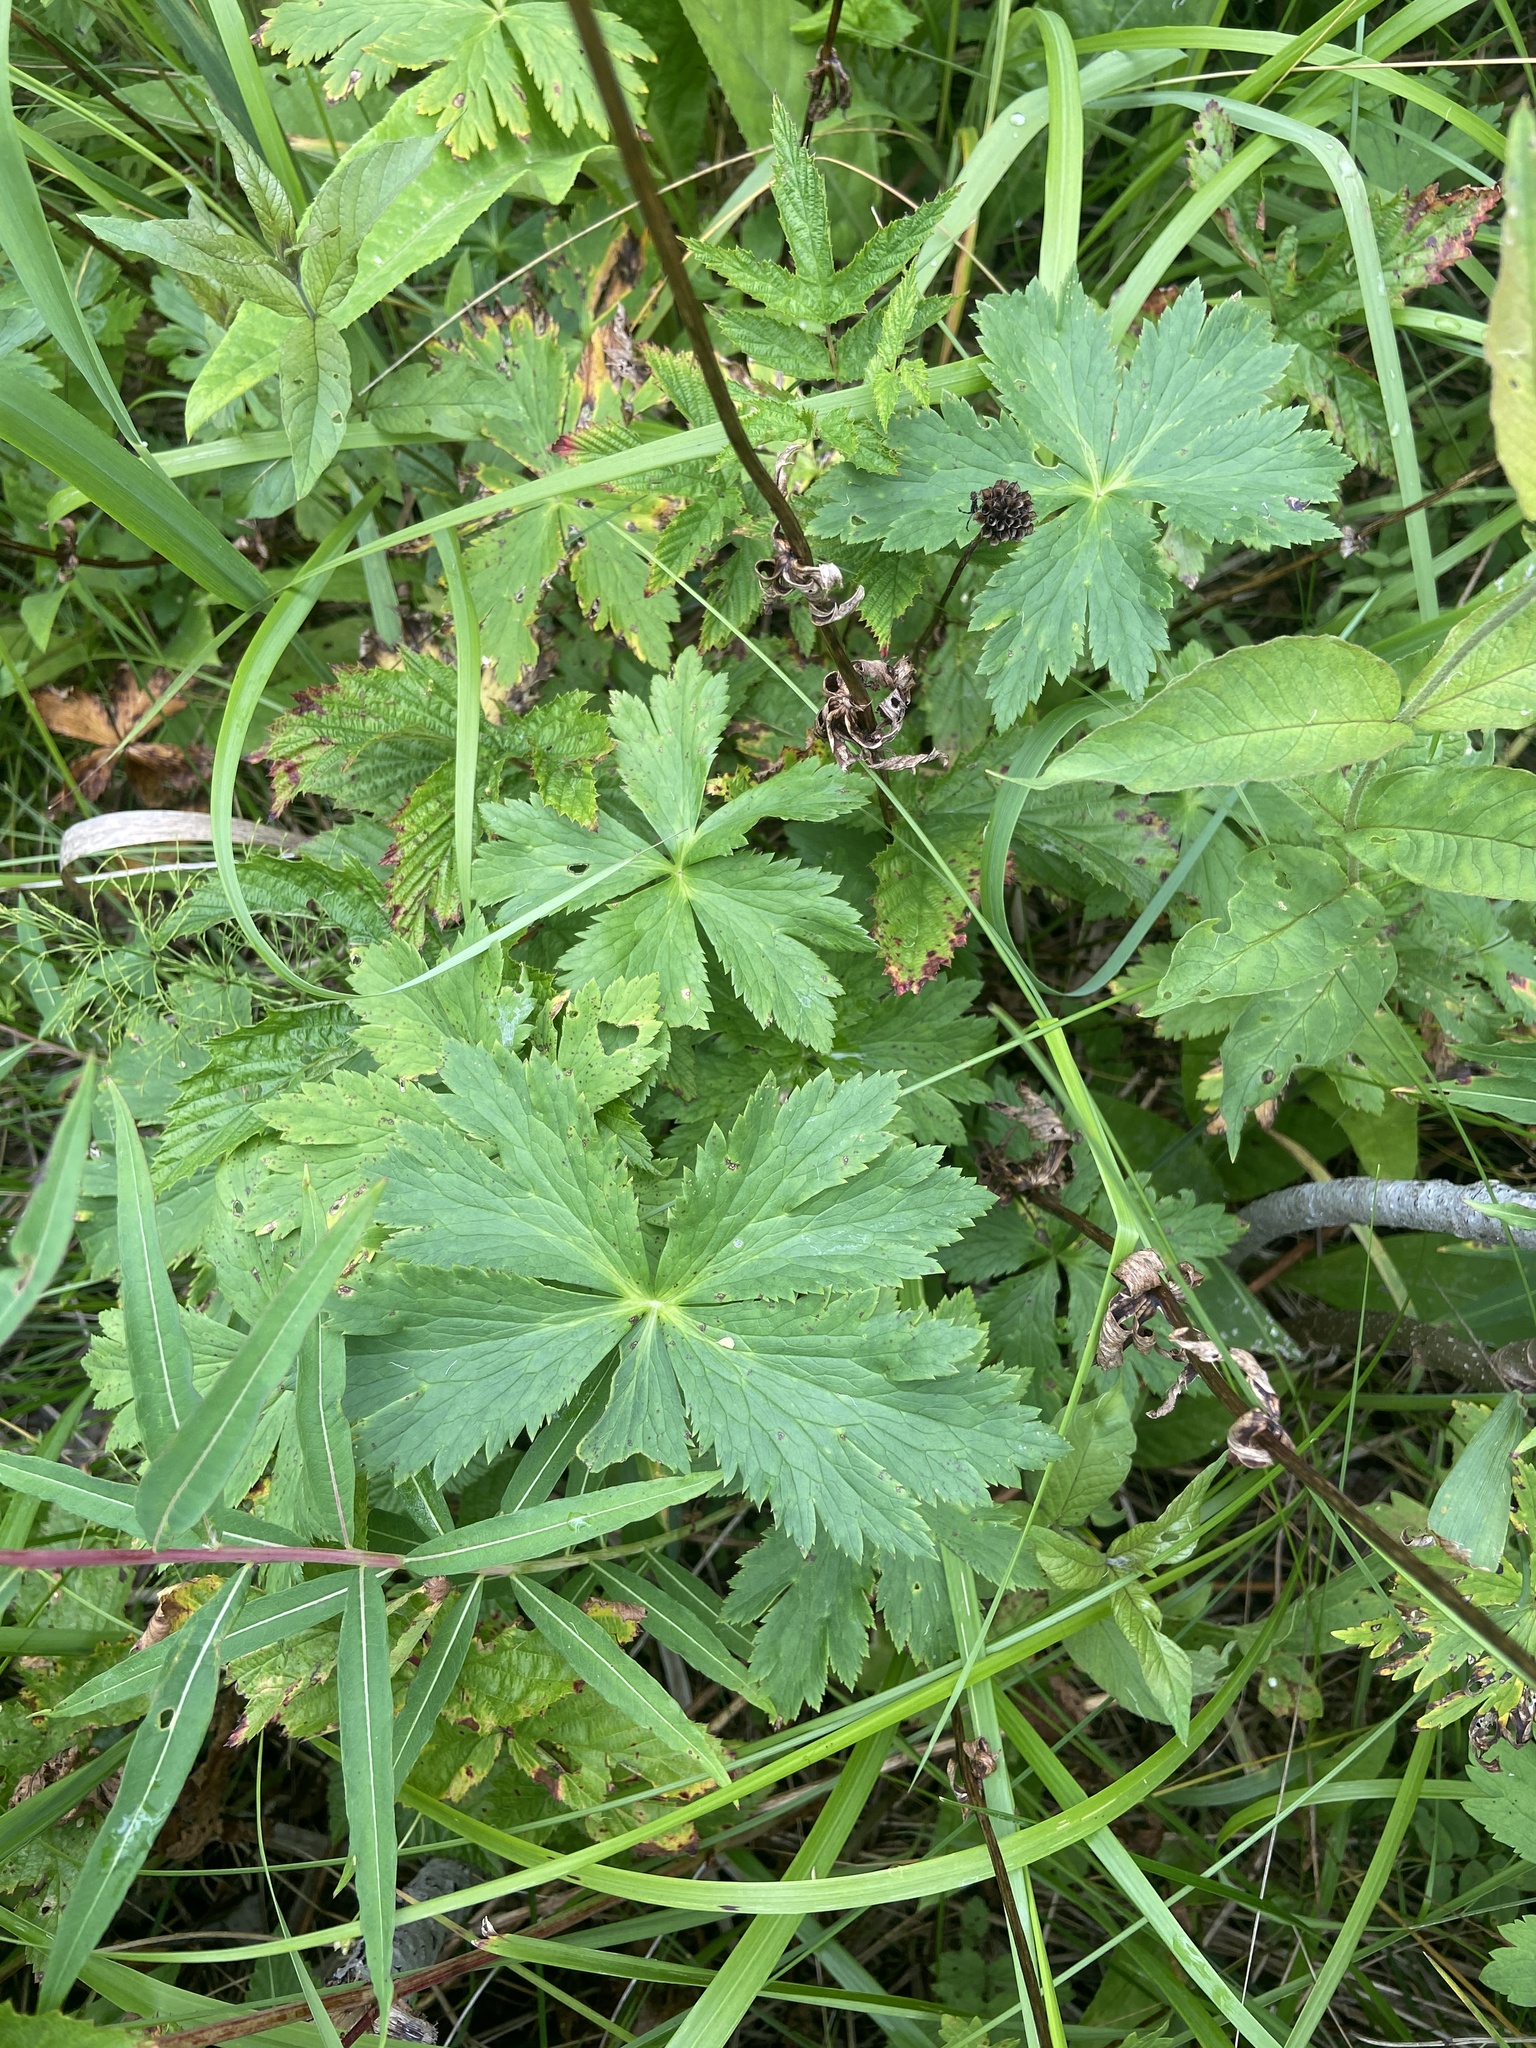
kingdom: Plantae
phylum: Tracheophyta
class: Magnoliopsida
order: Ranunculales
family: Ranunculaceae
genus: Trollius
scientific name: Trollius europaeus
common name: European globeflower
